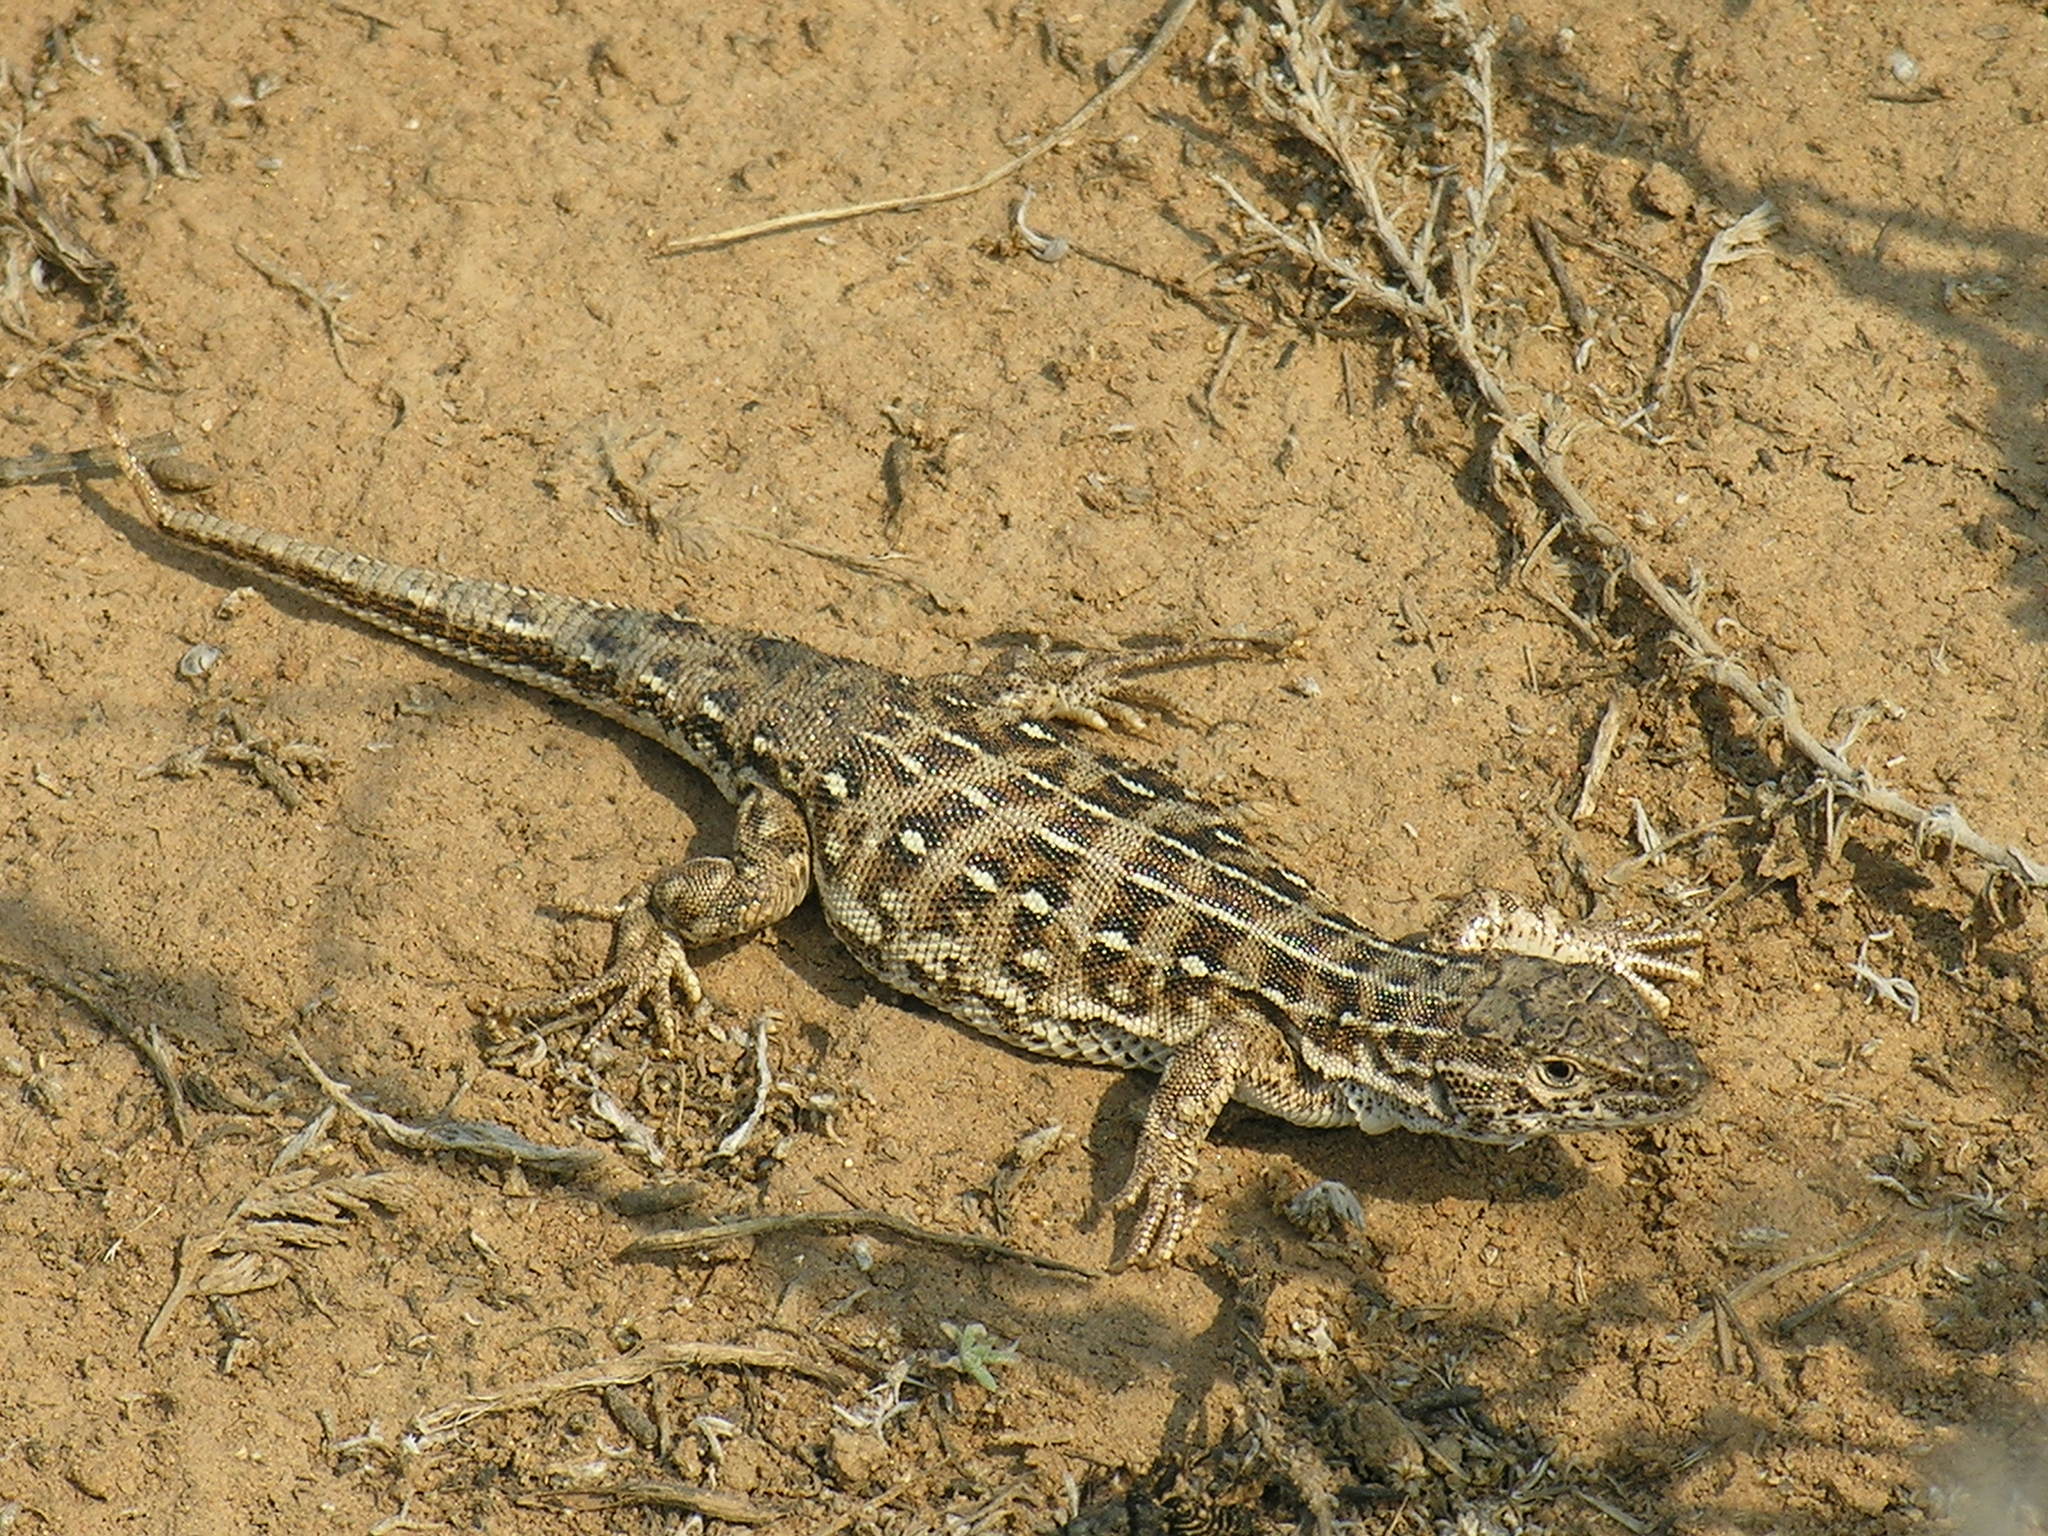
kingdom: Animalia
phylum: Chordata
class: Squamata
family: Lacertidae
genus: Eremias
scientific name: Eremias arguta
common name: Racerunner
